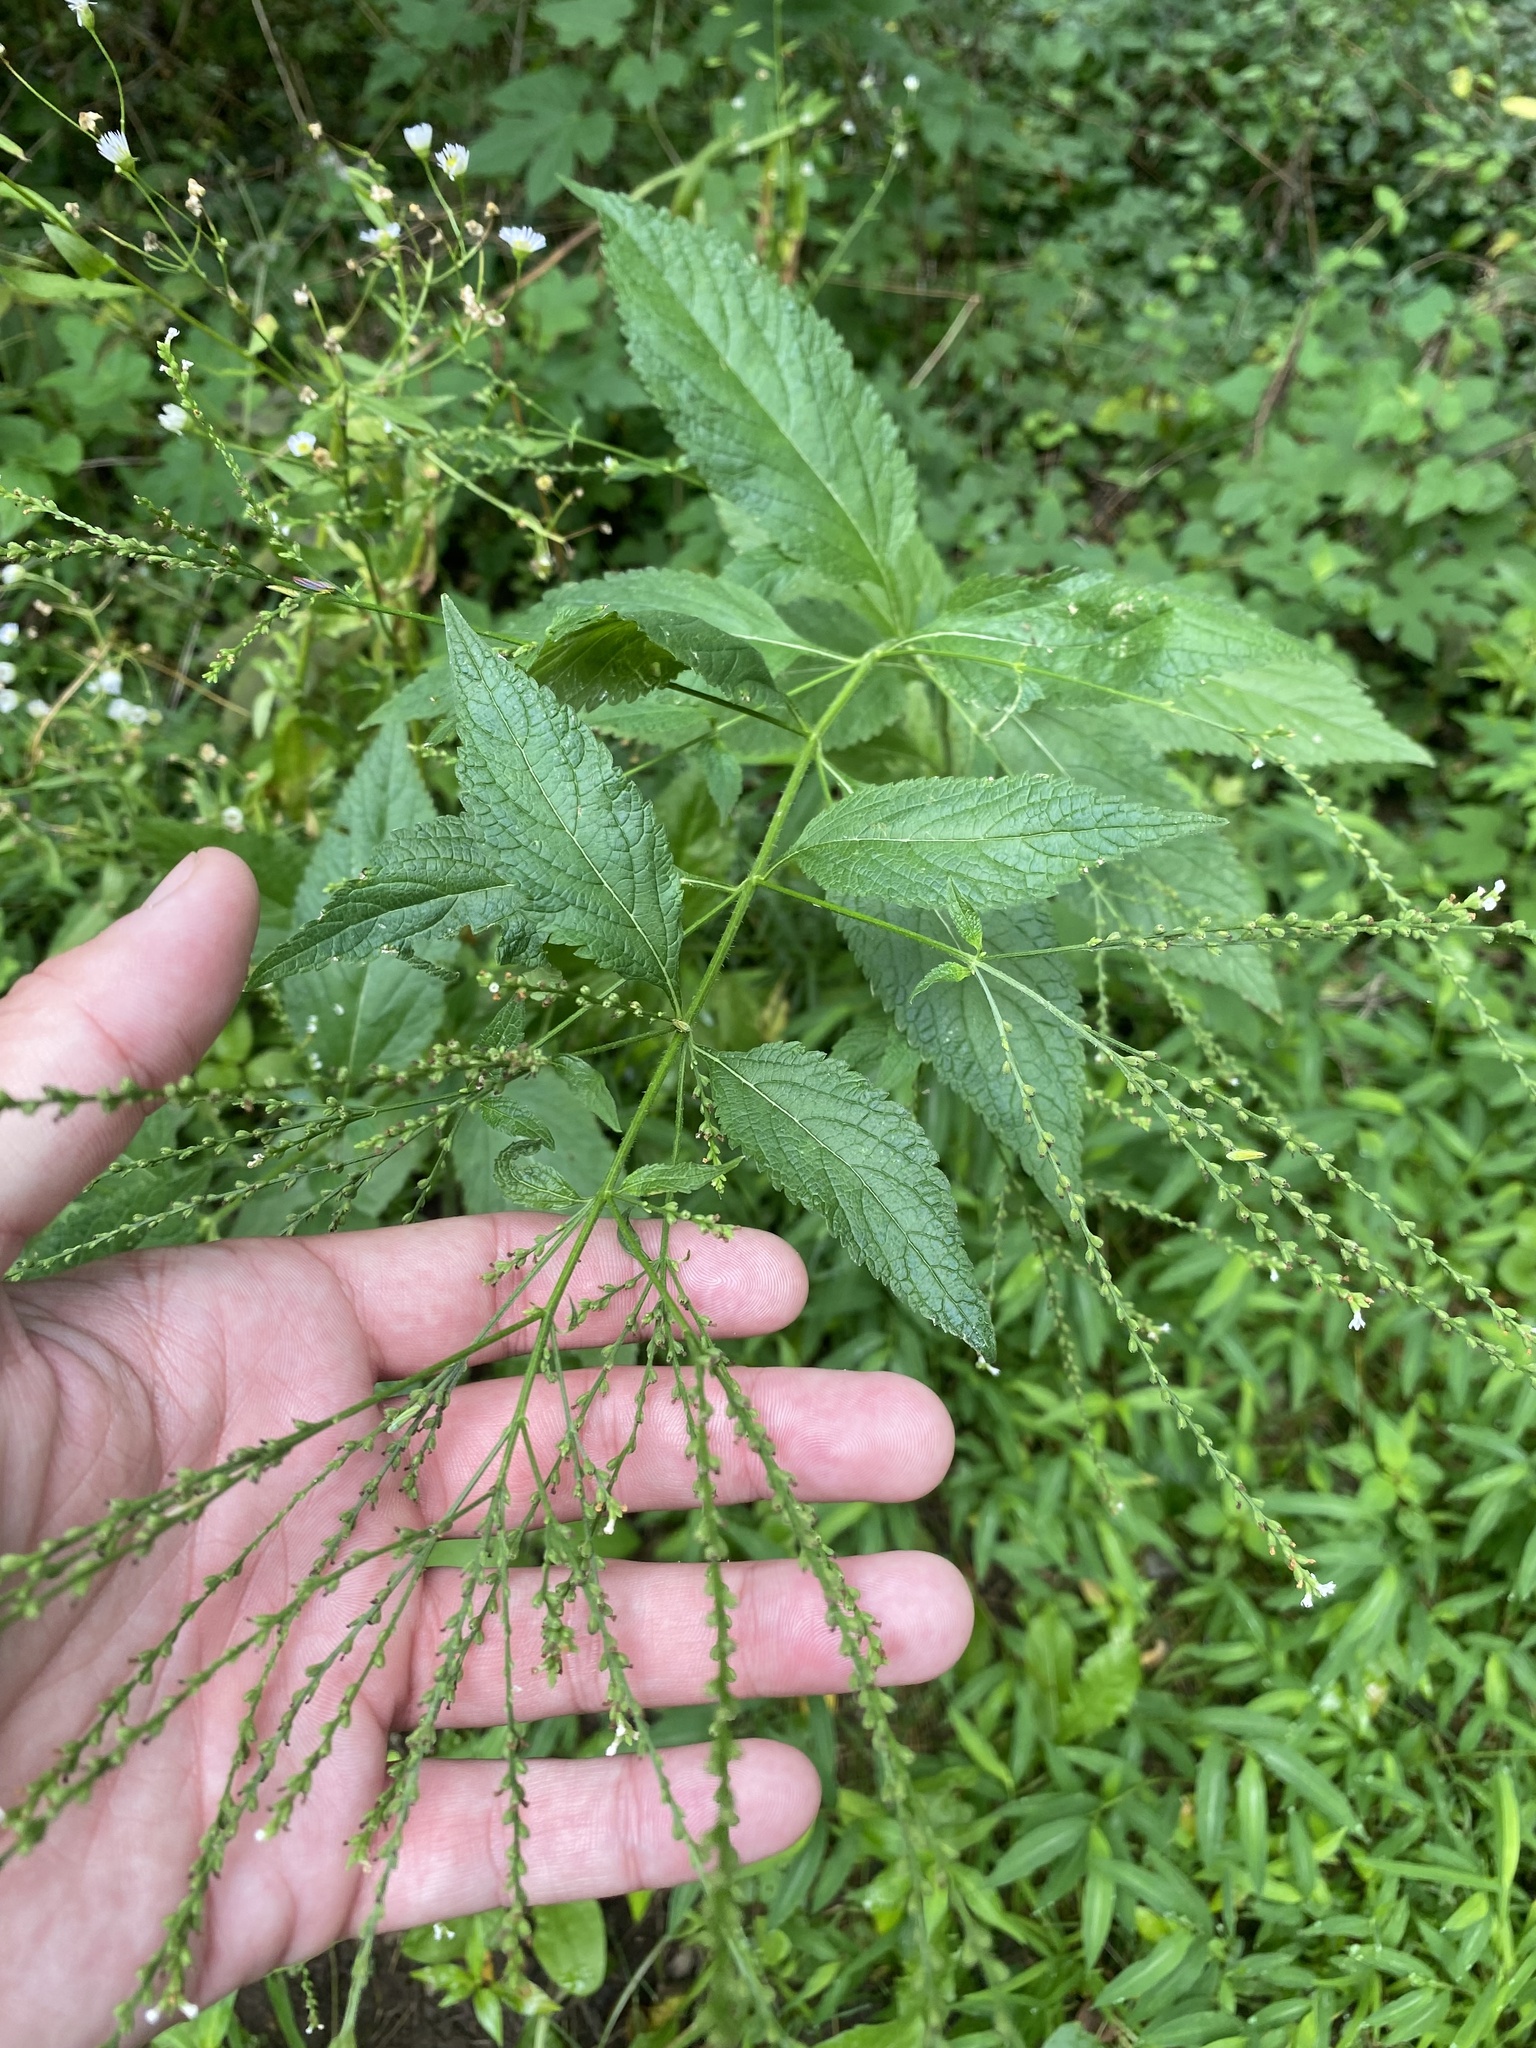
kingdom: Plantae
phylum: Tracheophyta
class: Magnoliopsida
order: Lamiales
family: Verbenaceae
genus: Verbena
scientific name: Verbena urticifolia
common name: Nettle-leaved vervain
